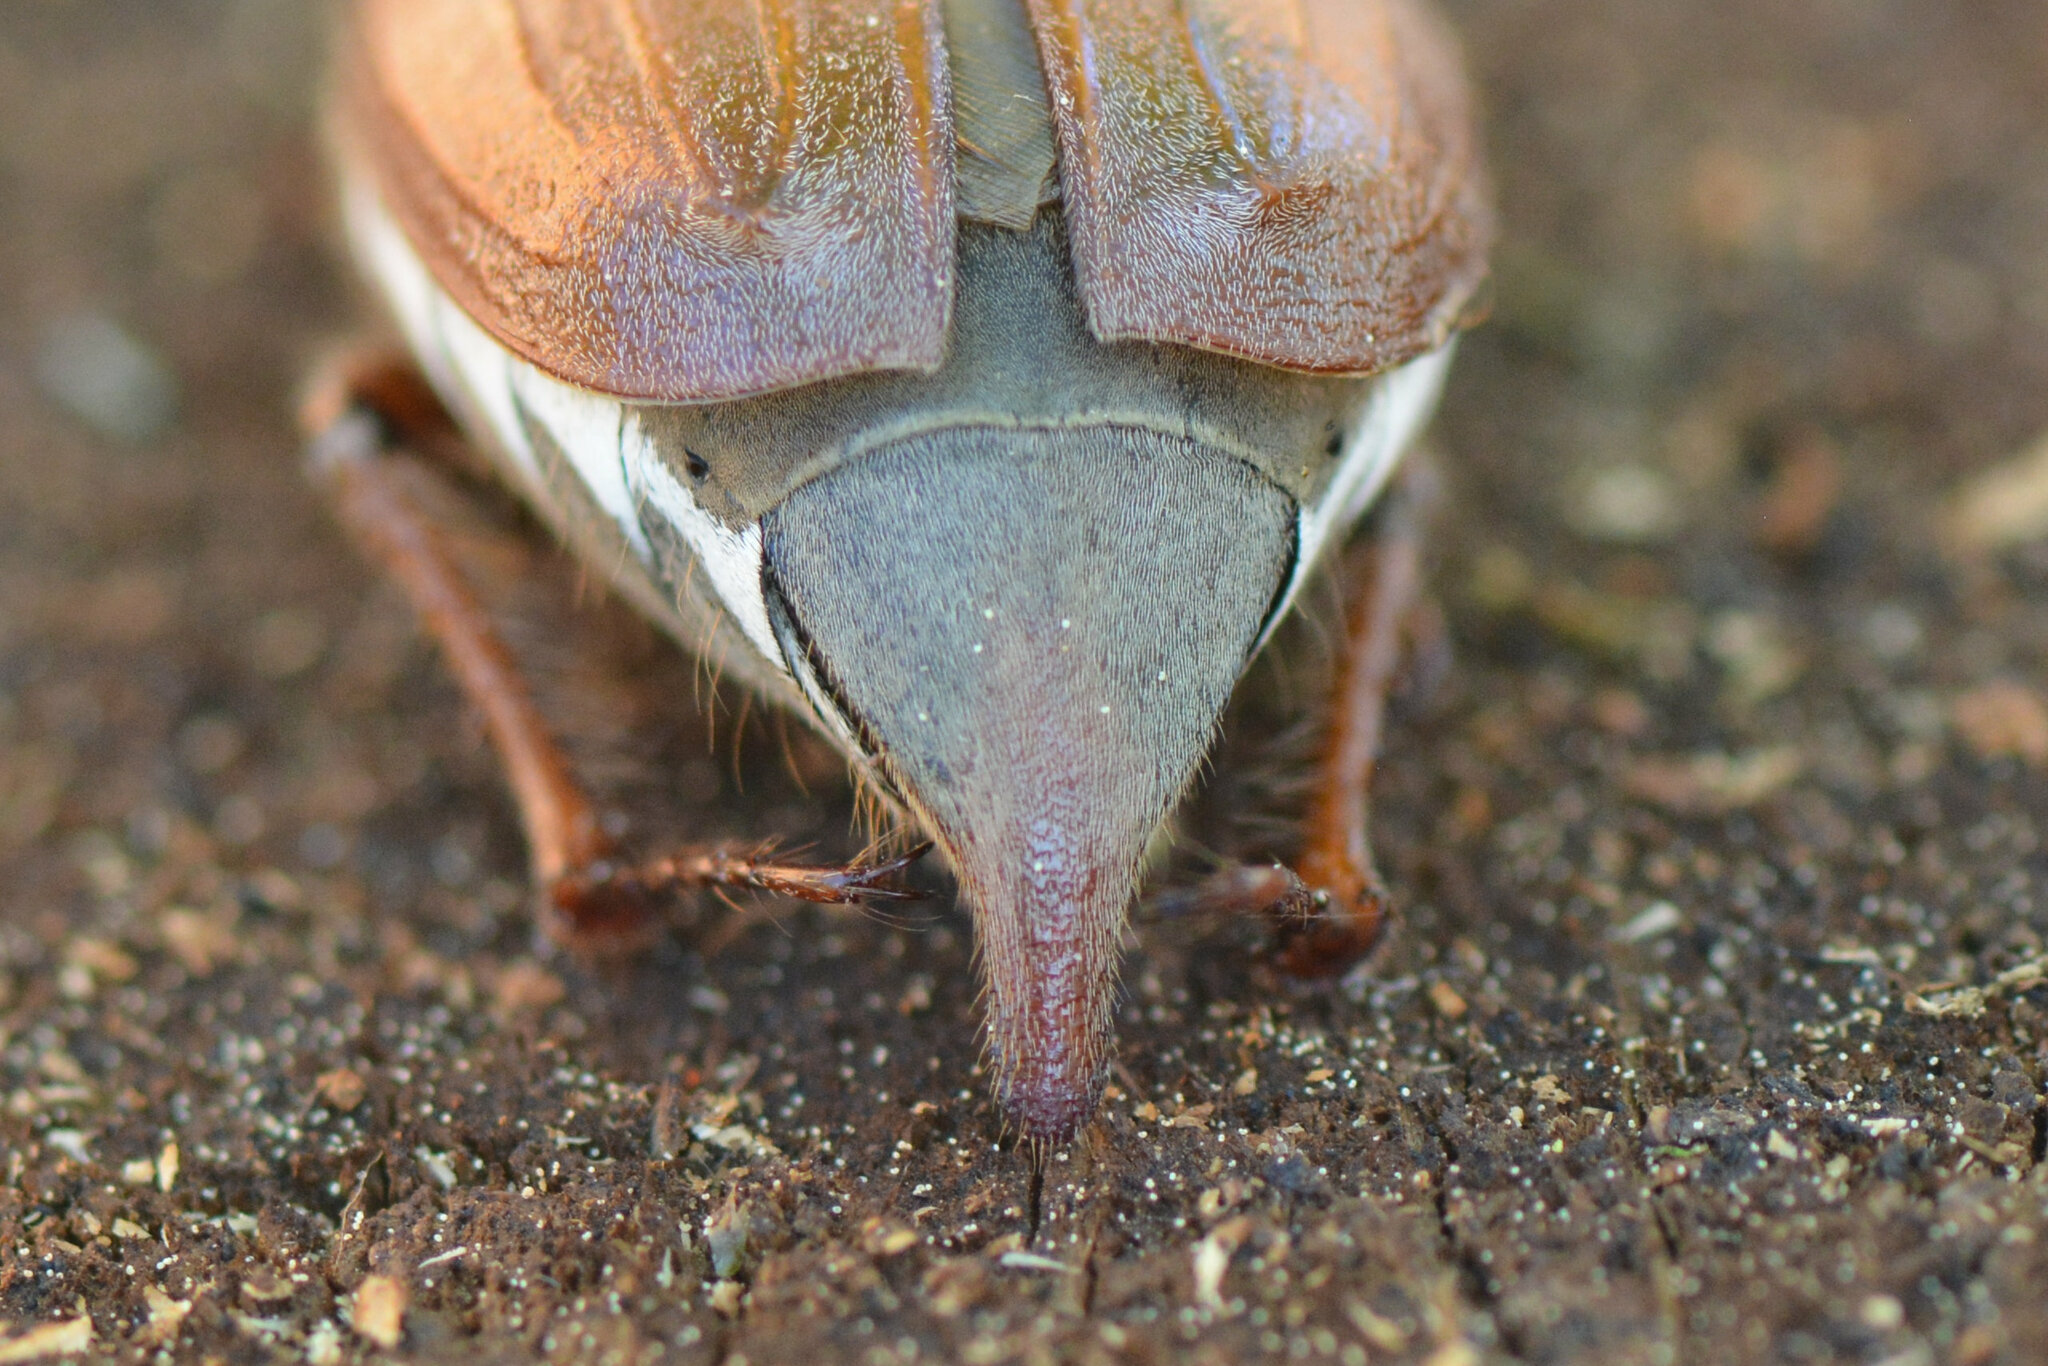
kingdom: Animalia
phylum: Arthropoda
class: Insecta
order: Coleoptera
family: Scarabaeidae
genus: Melolontha
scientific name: Melolontha melolontha
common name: Cockchafer maybeetle
